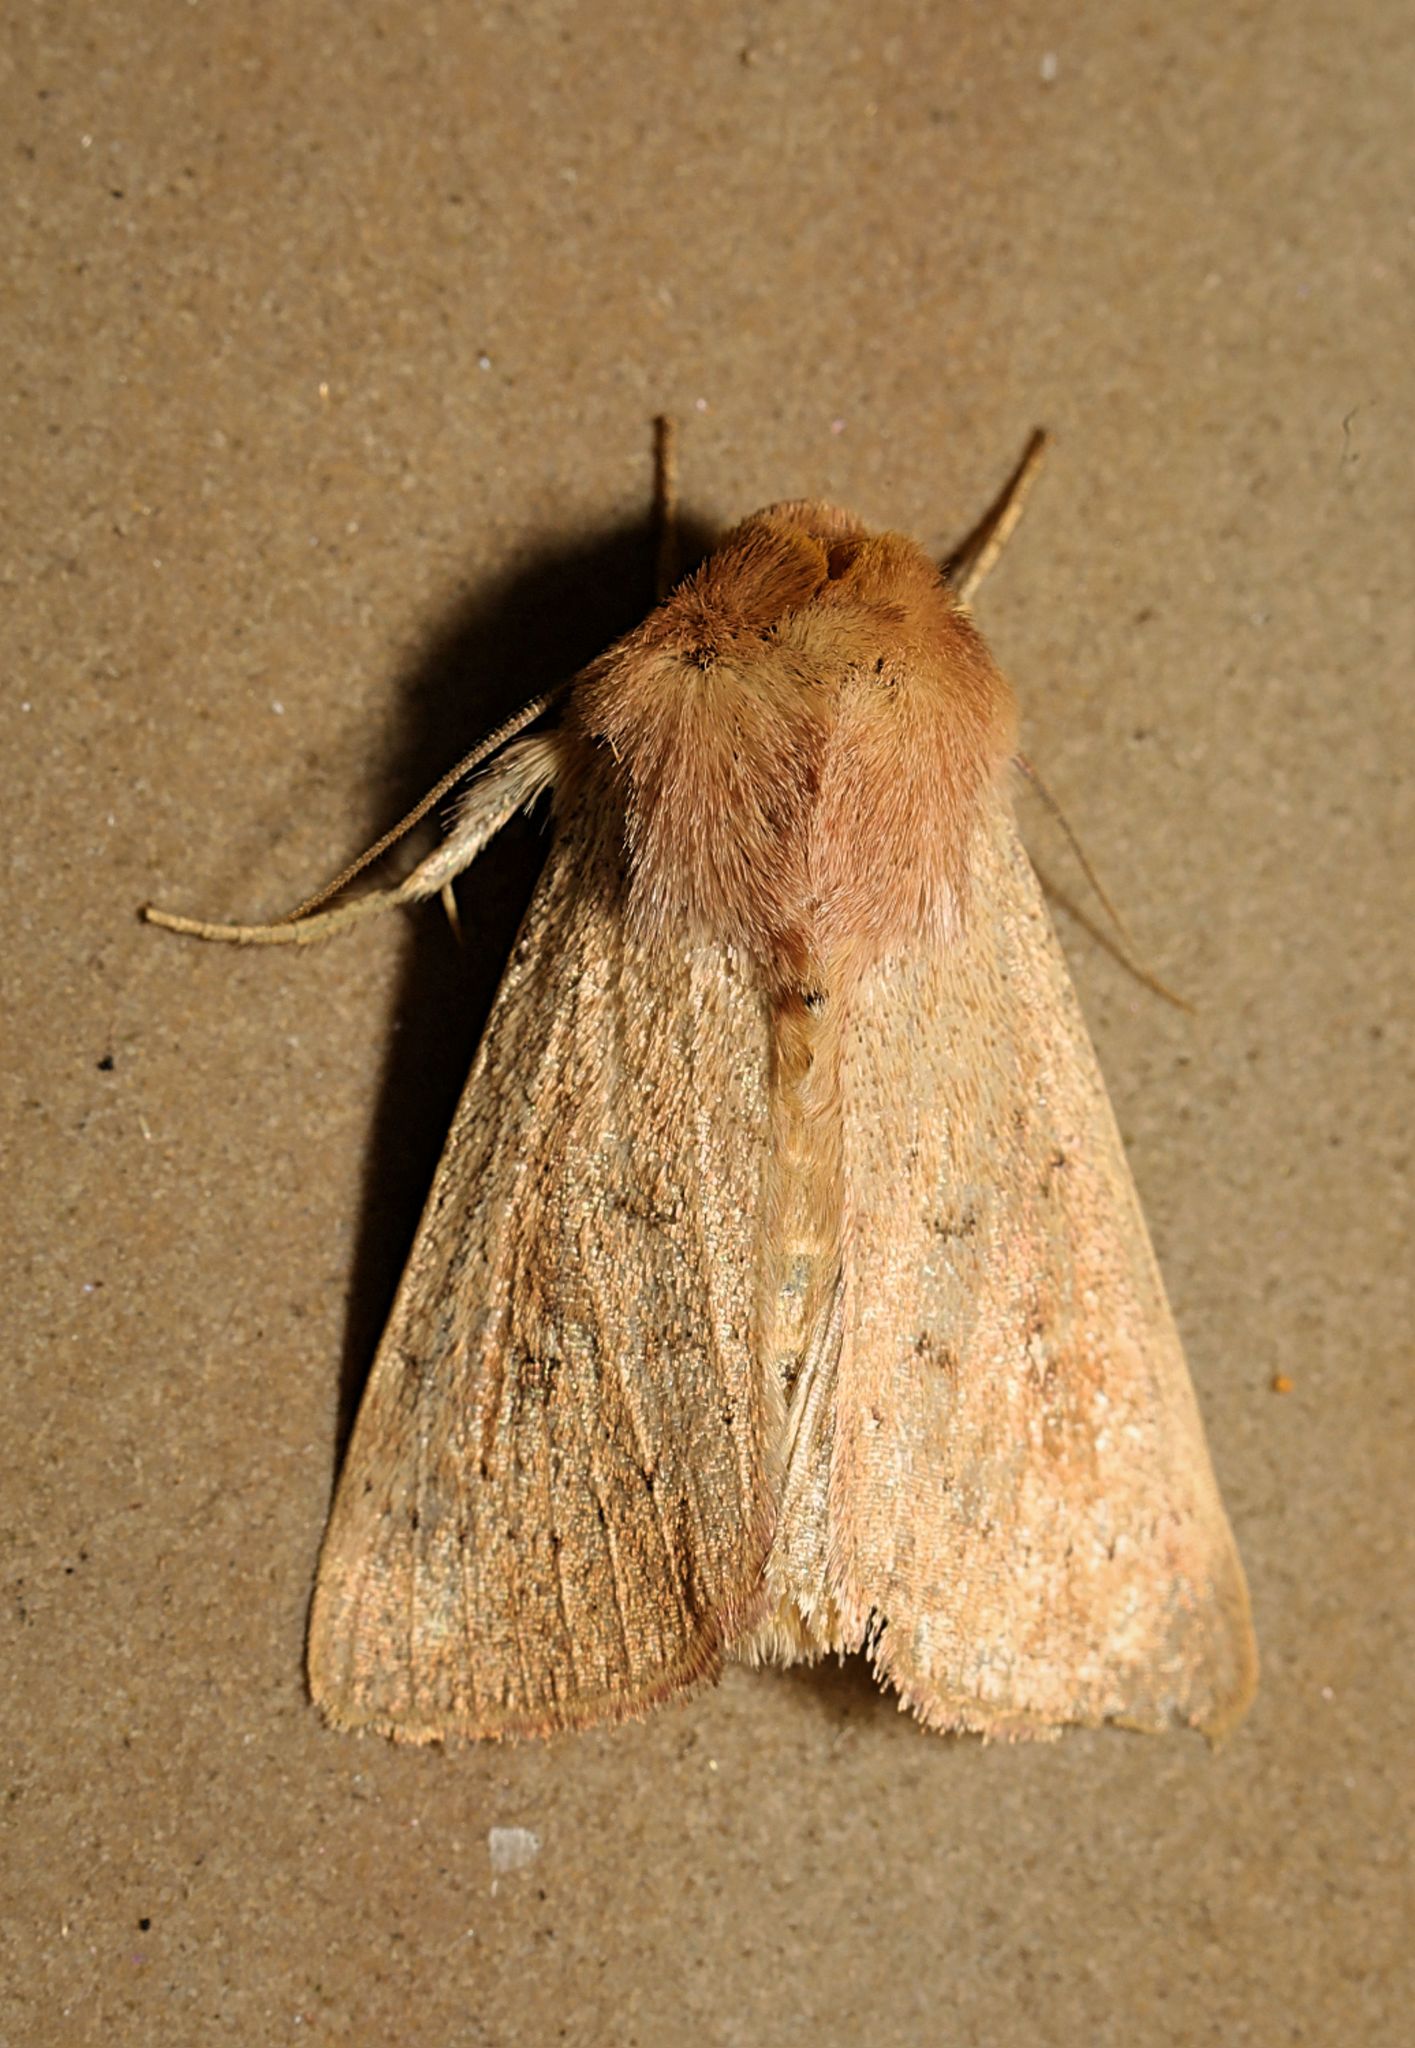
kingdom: Animalia
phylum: Arthropoda
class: Insecta
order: Lepidoptera
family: Noctuidae
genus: Mythimna
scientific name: Mythimna ferrago
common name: Clay
